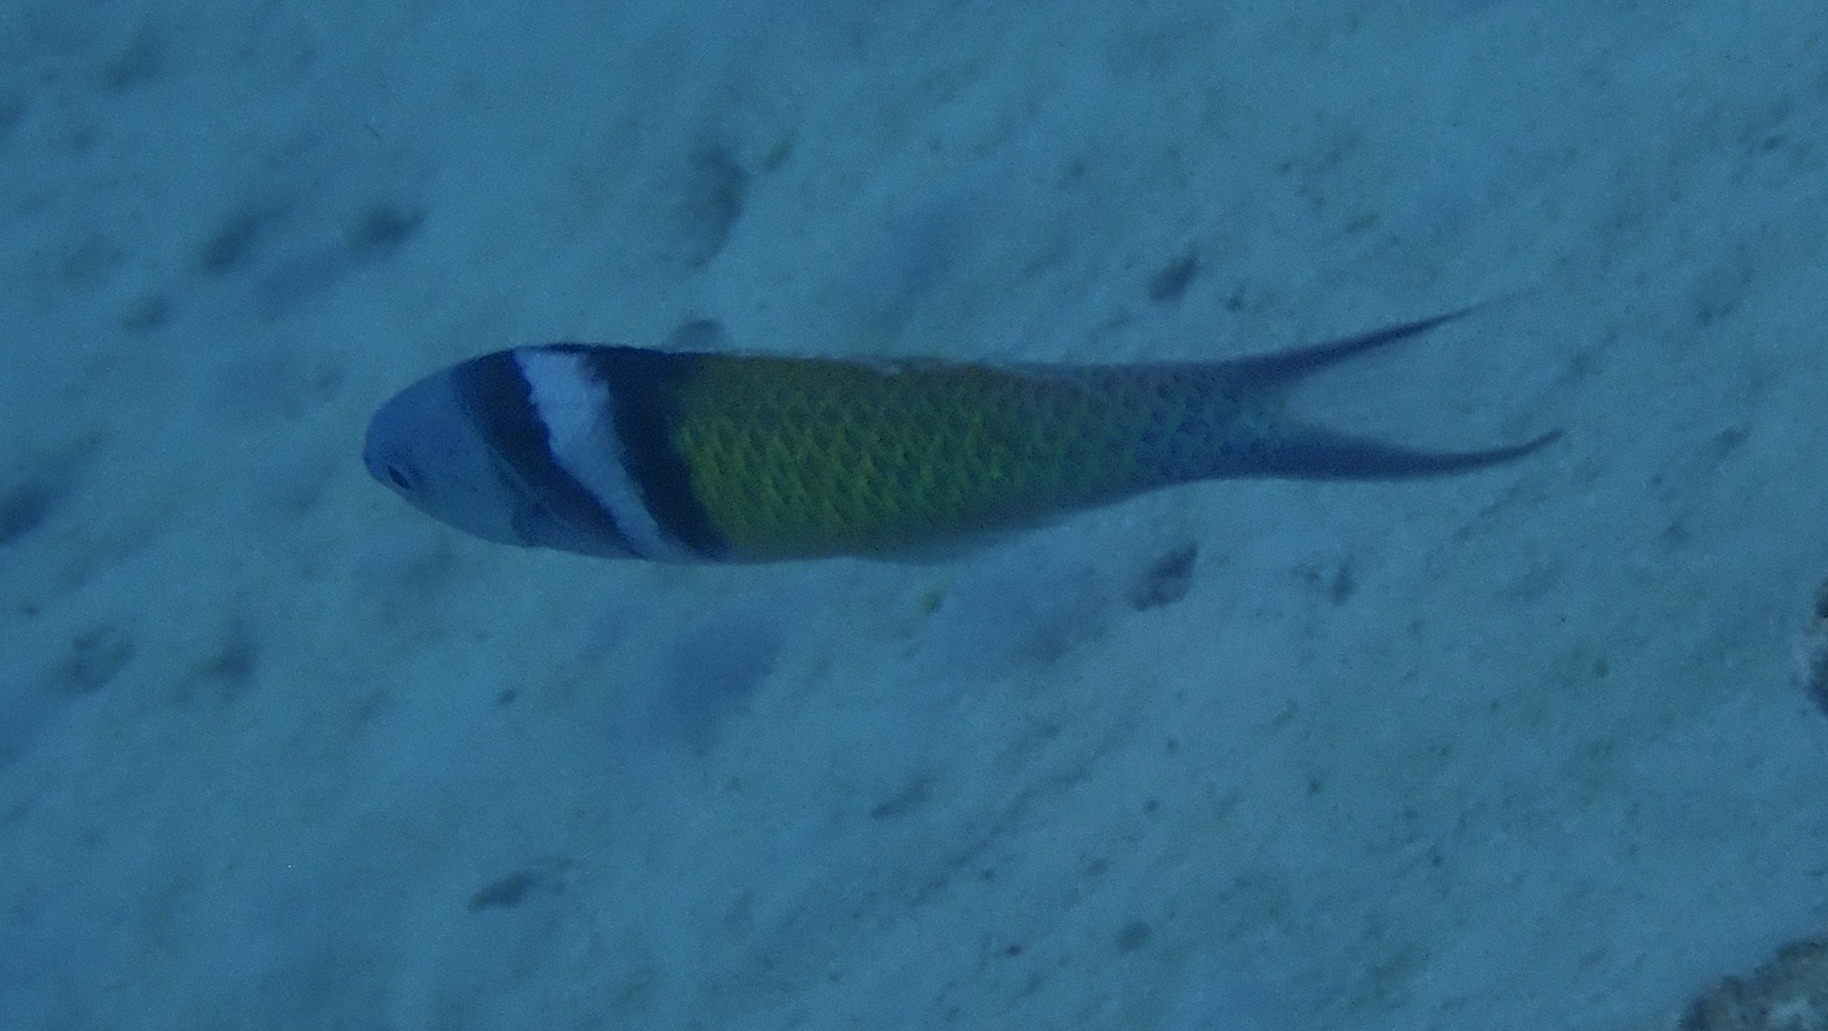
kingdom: Animalia
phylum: Chordata
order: Perciformes
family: Labridae
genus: Thalassoma
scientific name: Thalassoma bifasciatum
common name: Bluehead wrasse
